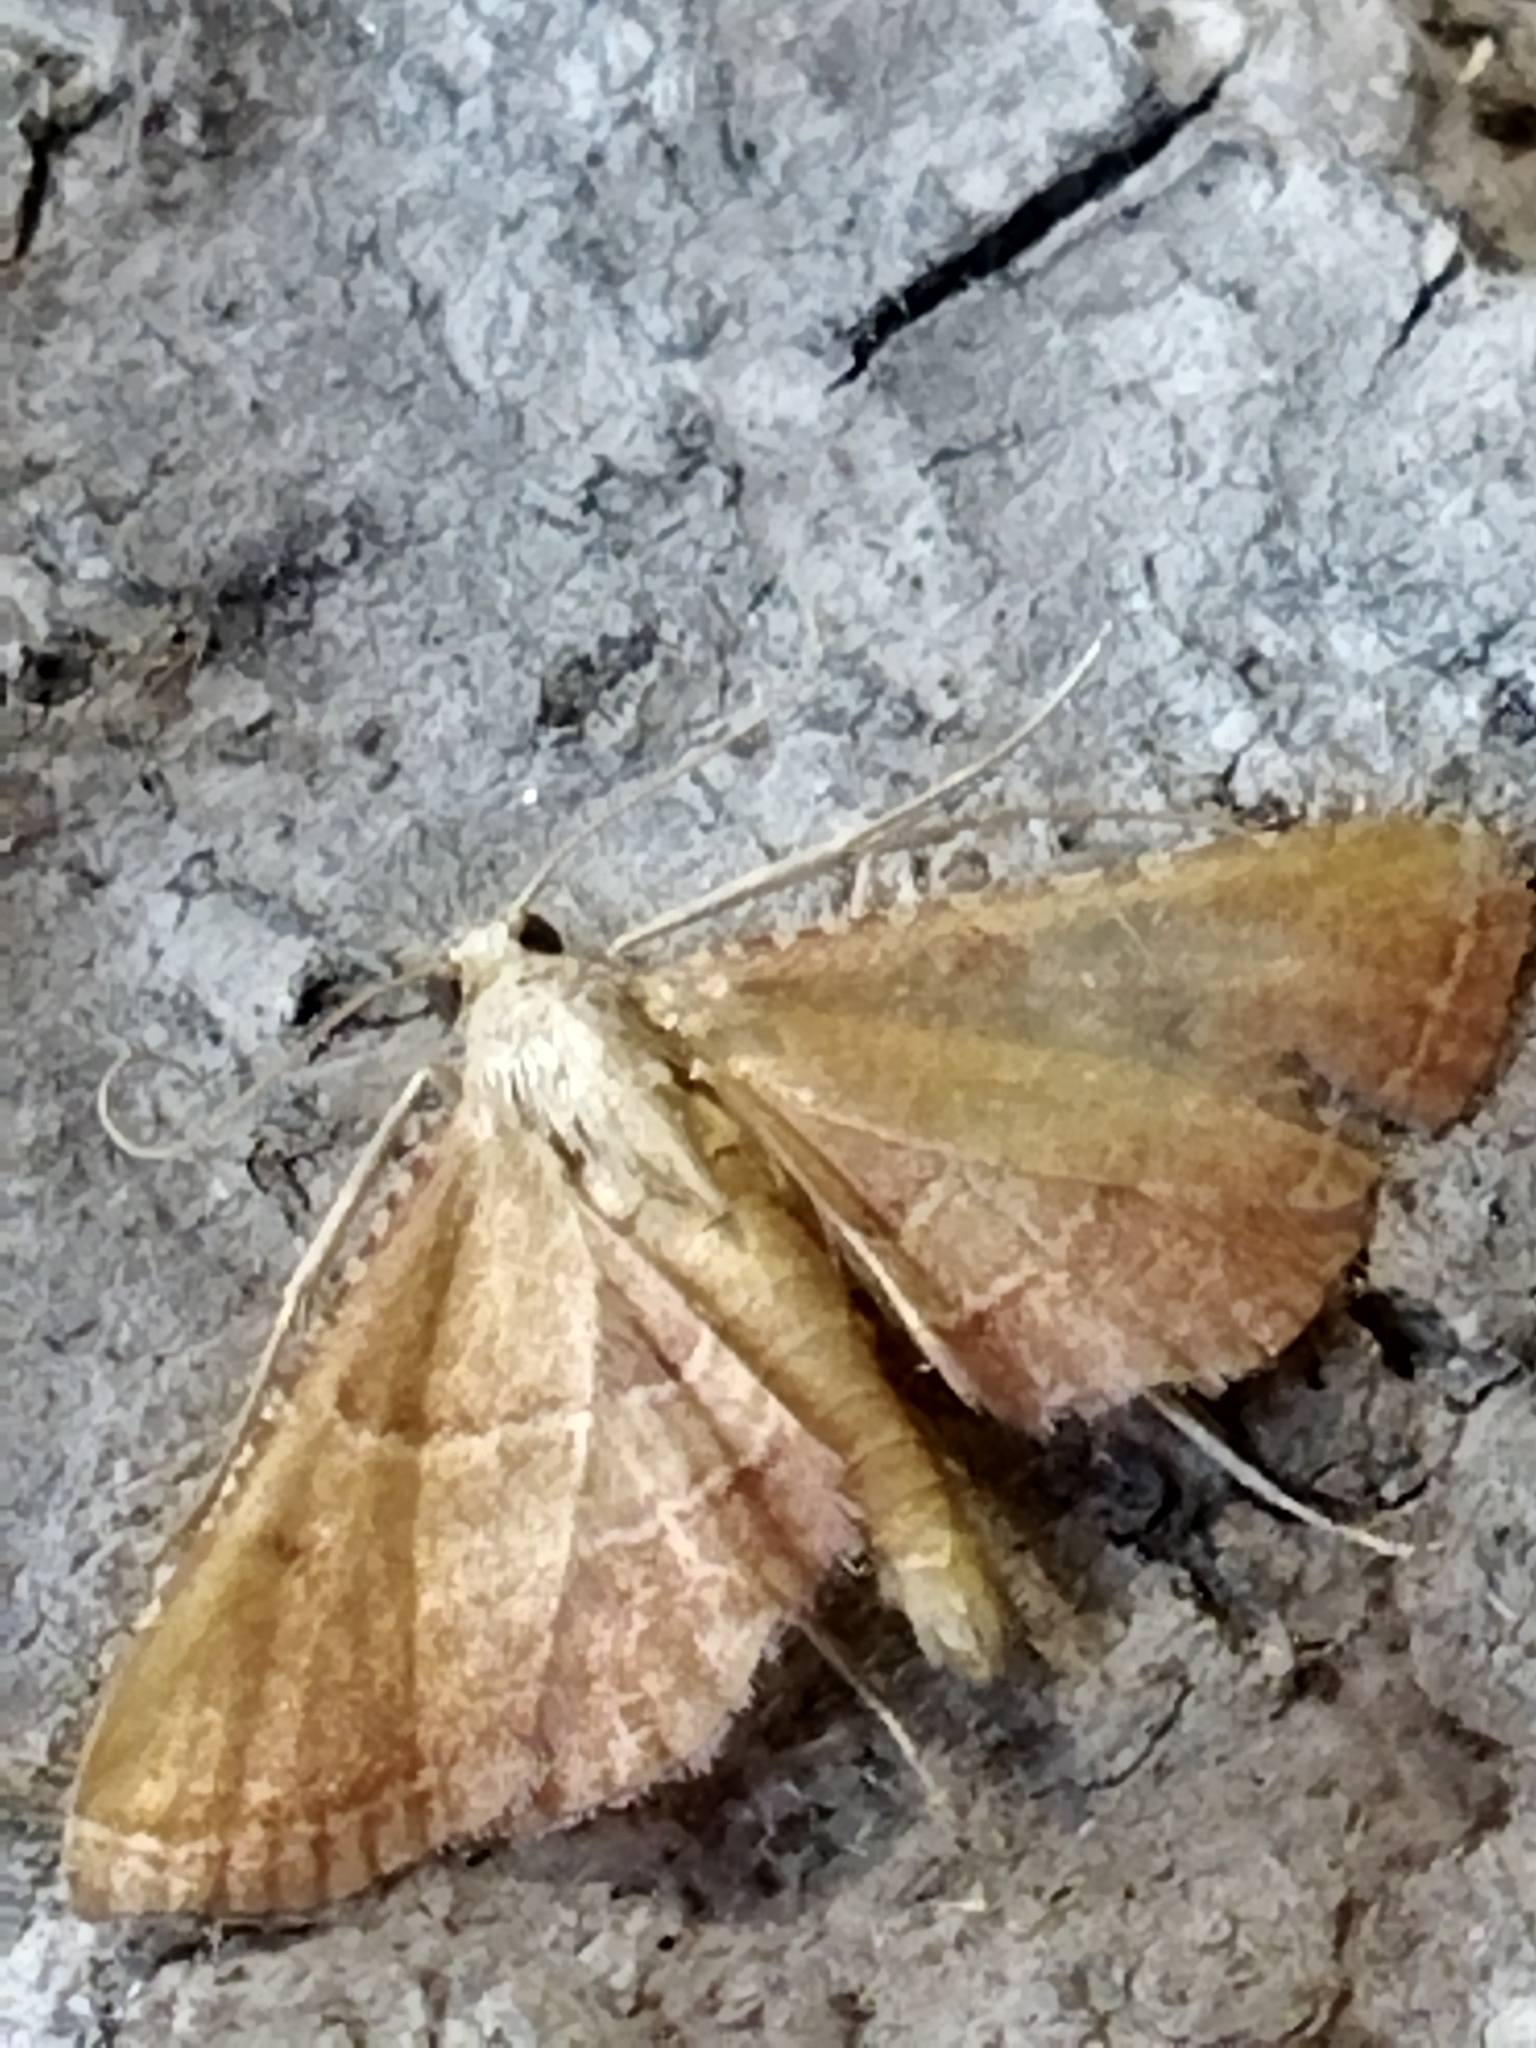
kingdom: Animalia
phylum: Arthropoda
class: Insecta
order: Lepidoptera
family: Pyralidae
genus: Endotricha
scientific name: Endotricha flammealis
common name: Rosy tabby
